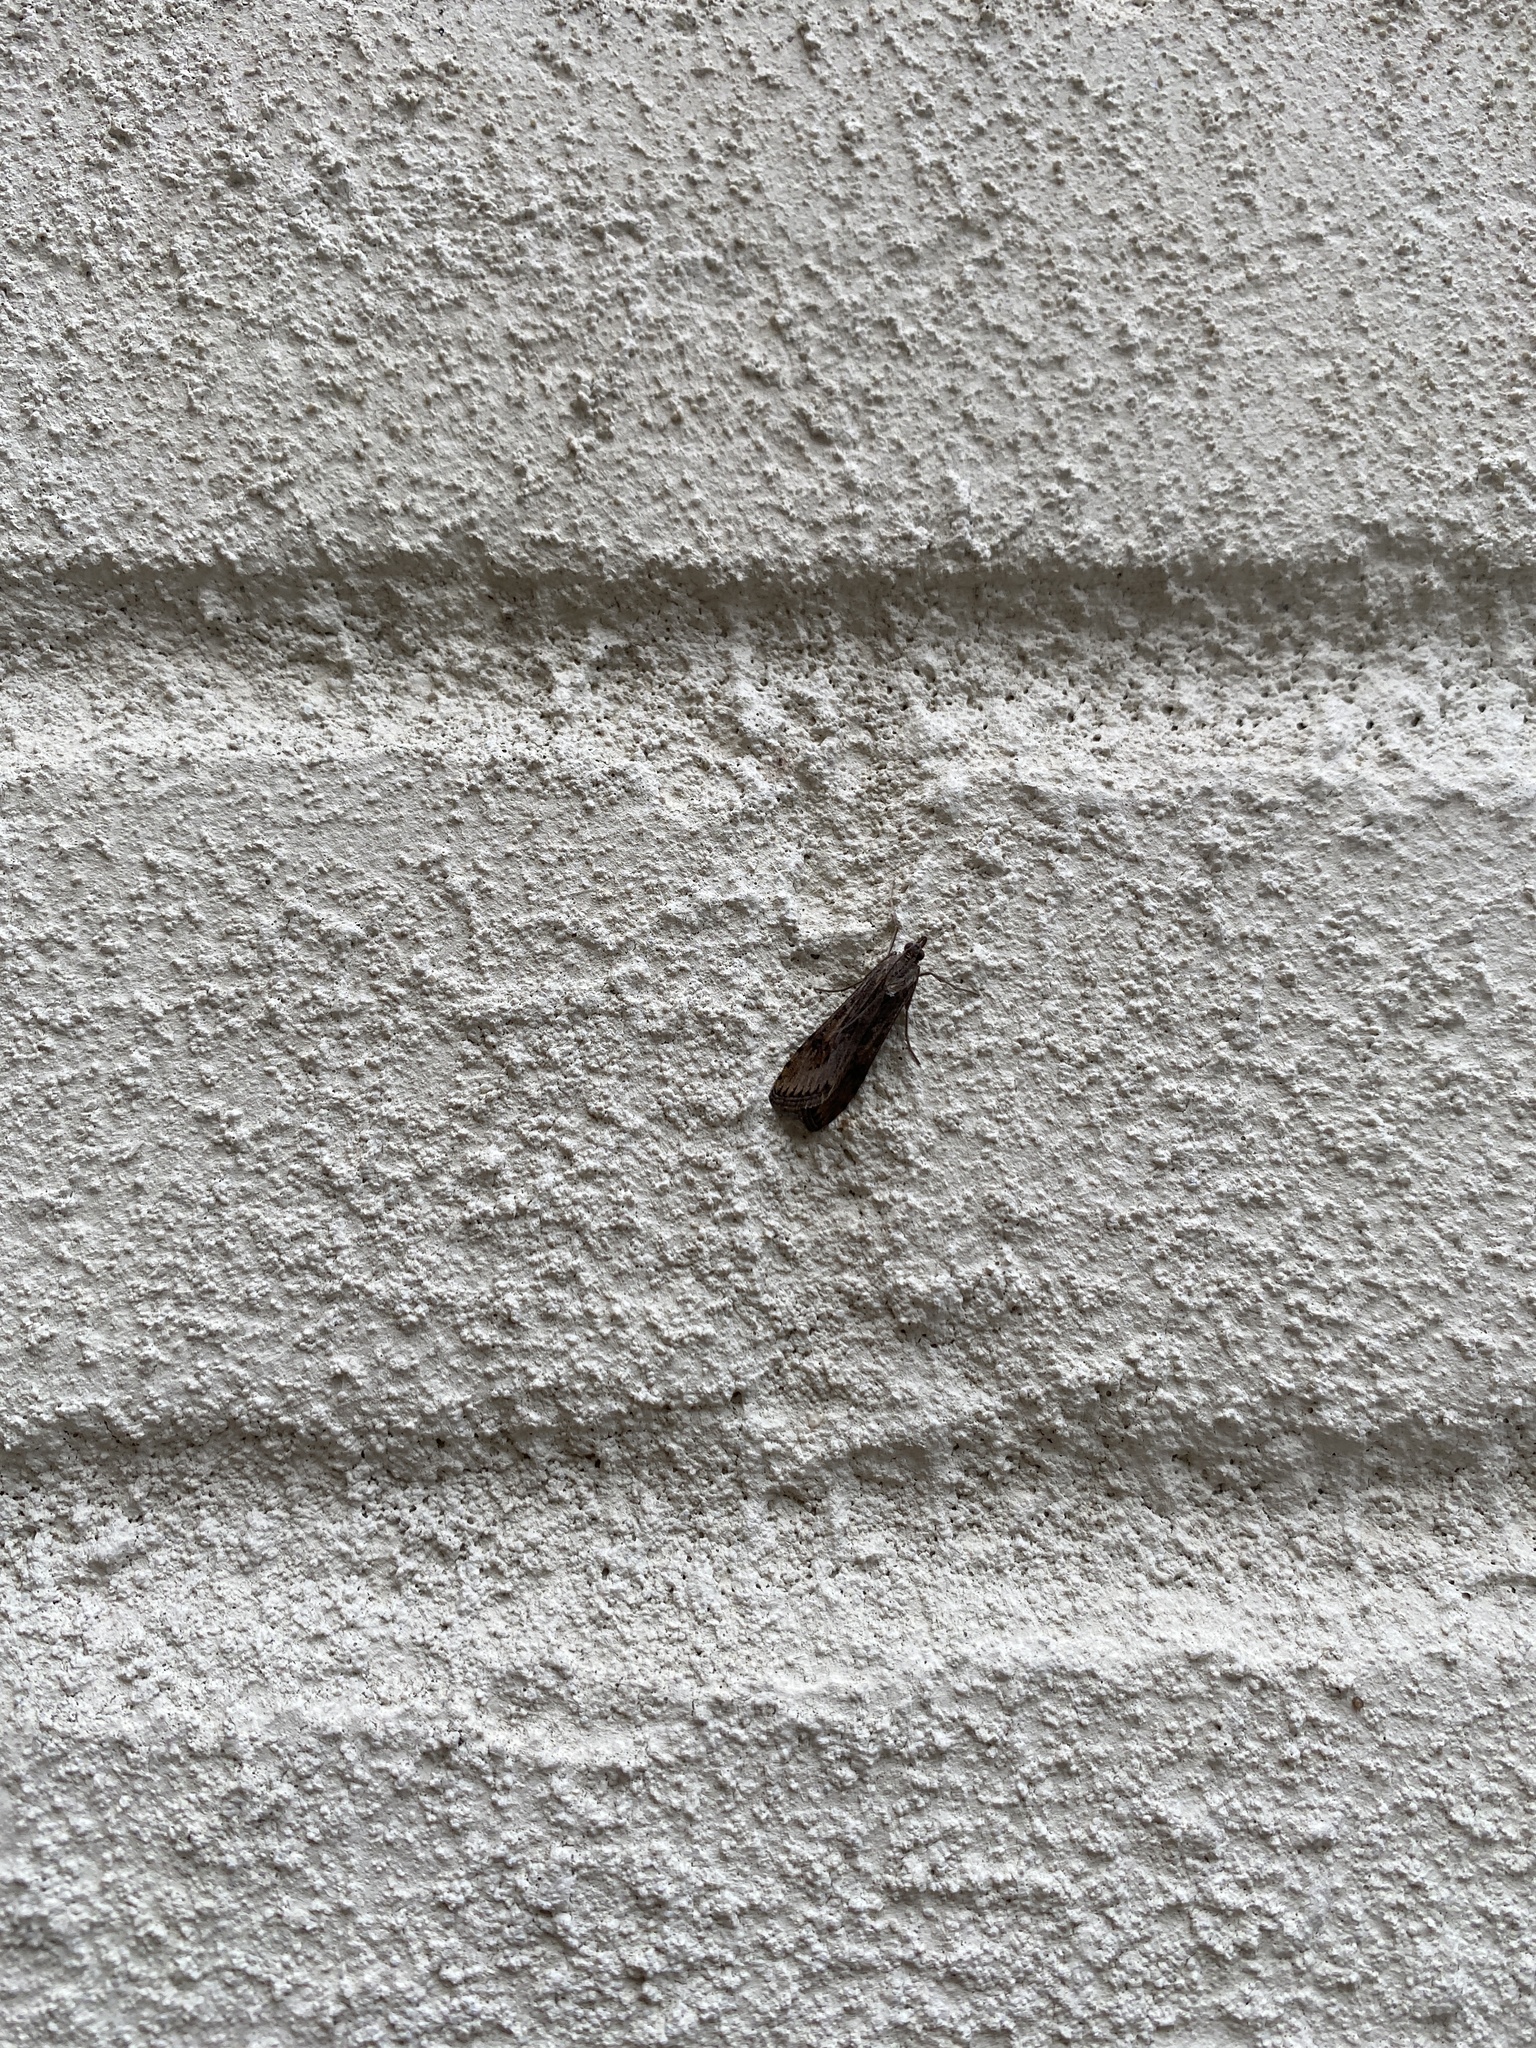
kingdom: Animalia
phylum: Arthropoda
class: Insecta
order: Lepidoptera
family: Crambidae
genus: Nomophila
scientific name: Nomophila nearctica
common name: American rush veneer
